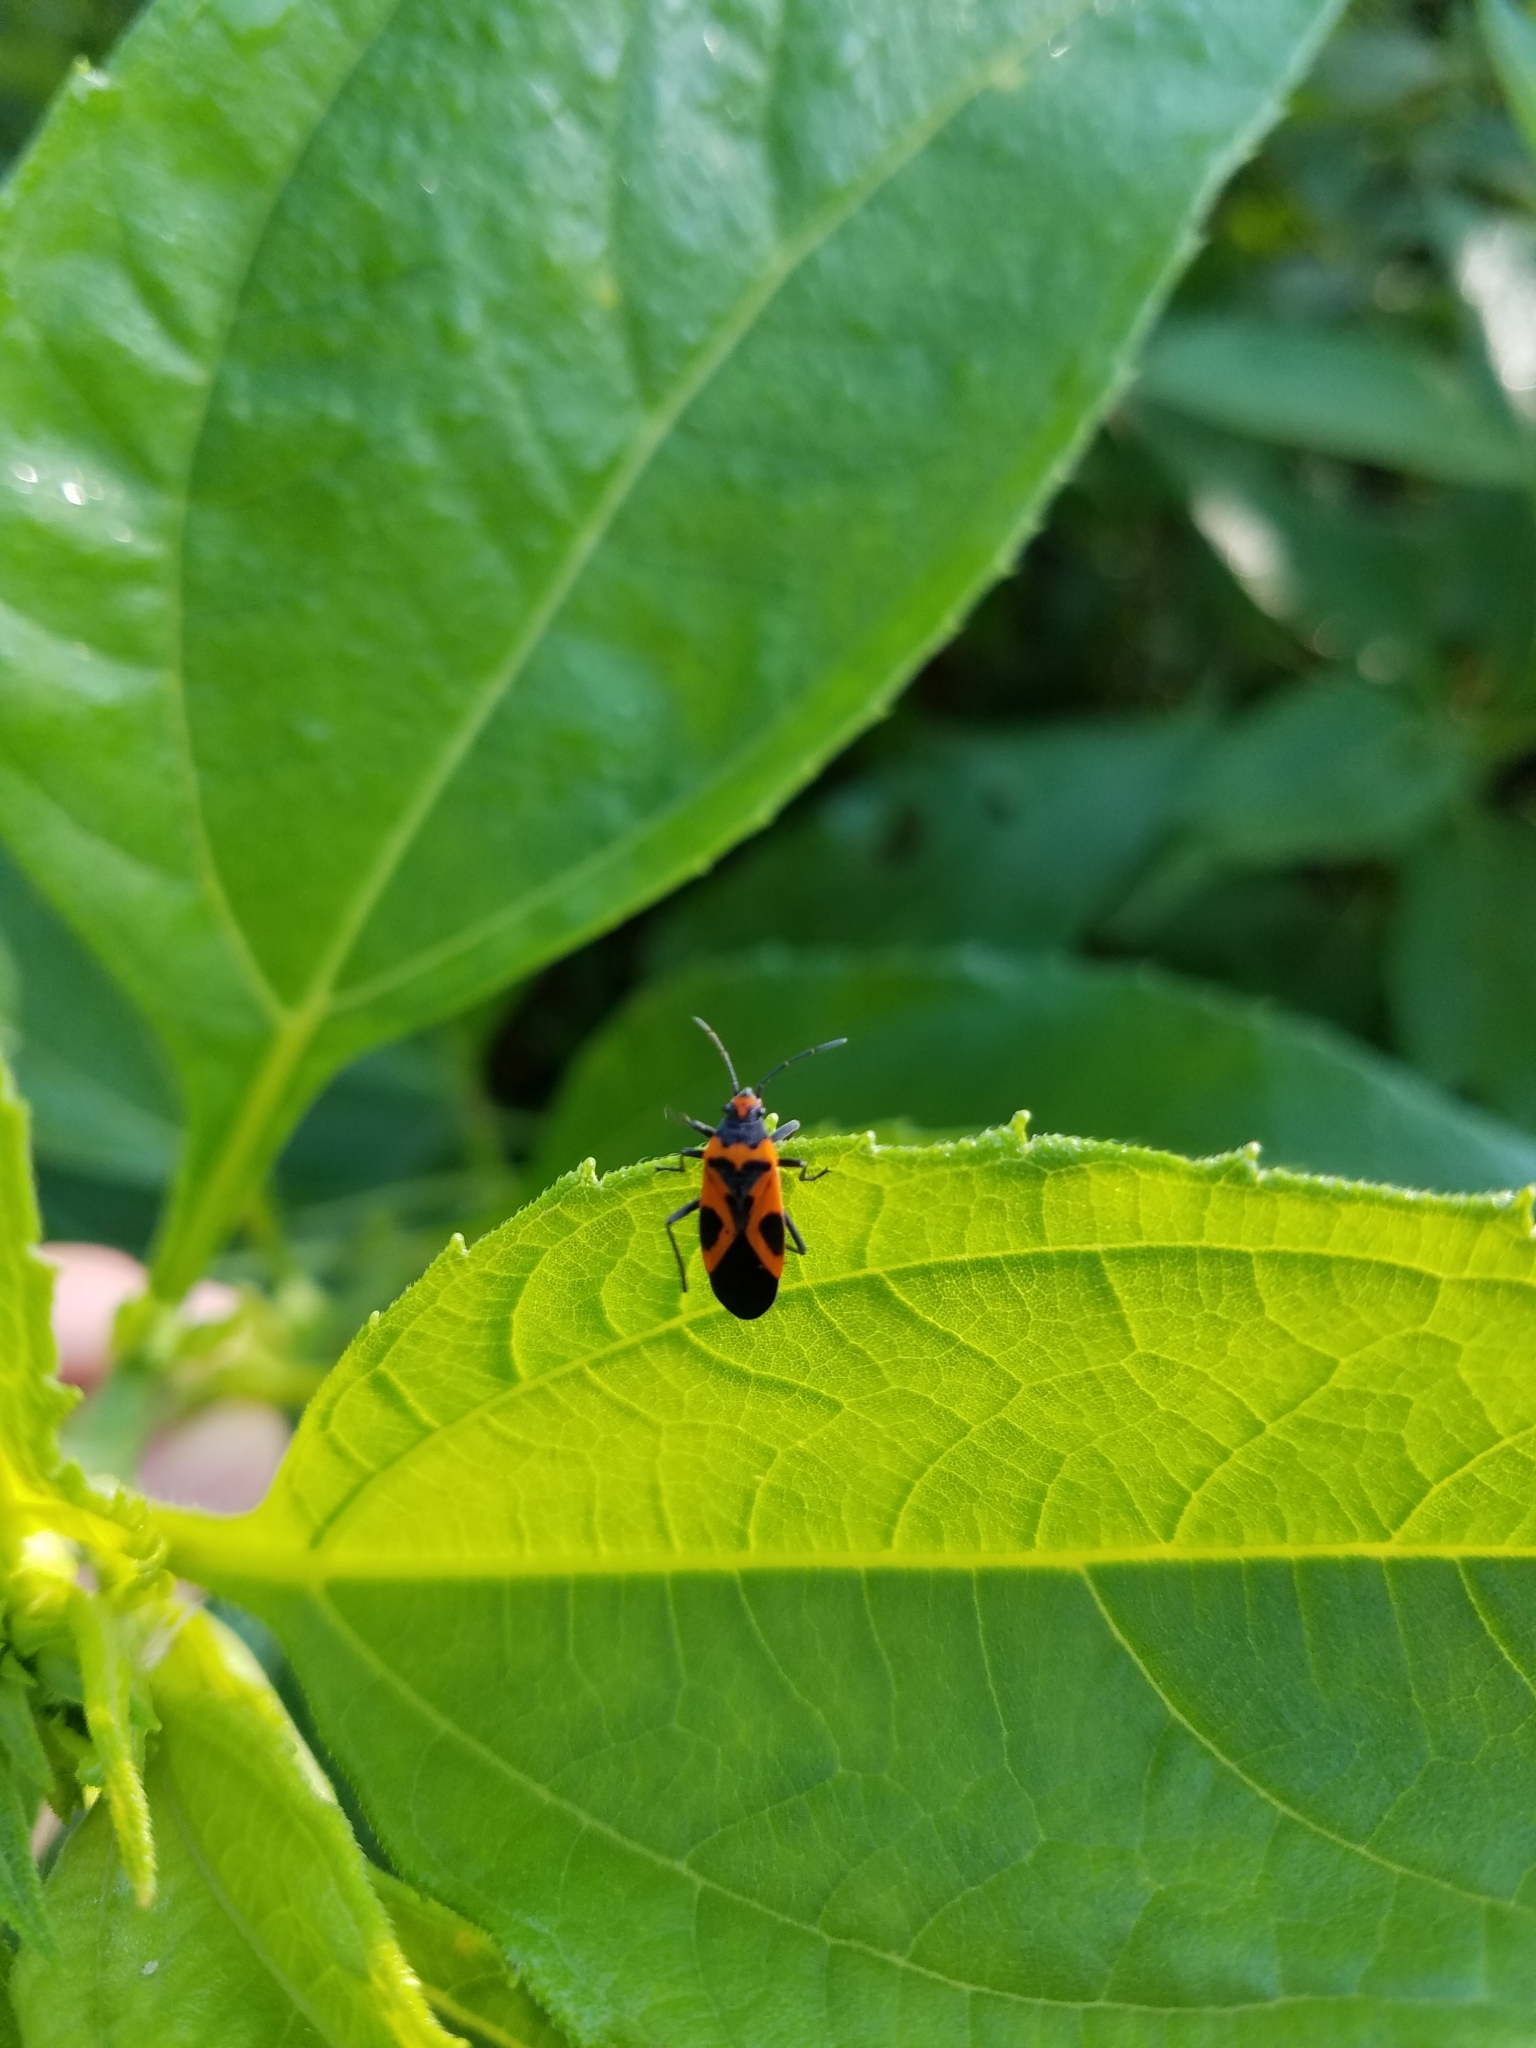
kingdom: Animalia
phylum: Arthropoda
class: Insecta
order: Hemiptera
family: Lygaeidae
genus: Lygaeus
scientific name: Lygaeus turcicus
